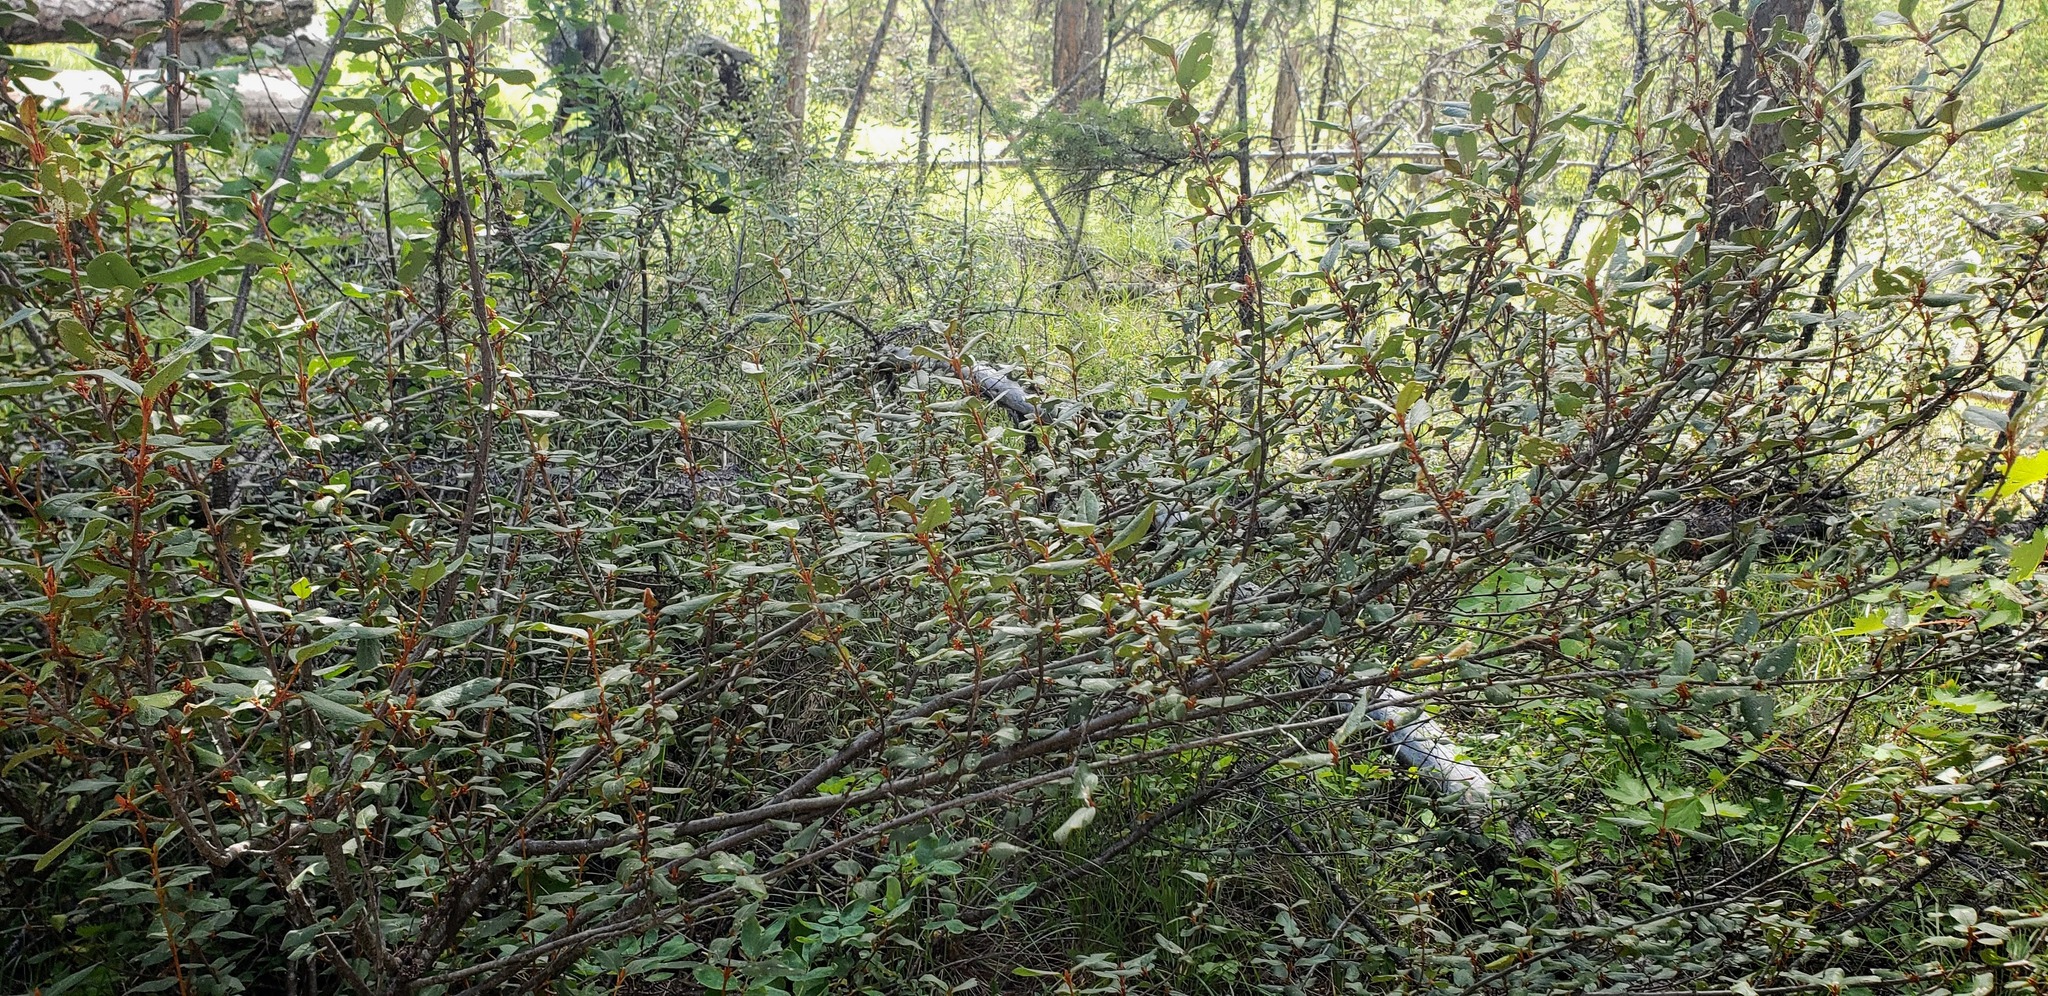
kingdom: Plantae
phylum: Tracheophyta
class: Magnoliopsida
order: Rosales
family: Elaeagnaceae
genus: Shepherdia
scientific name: Shepherdia canadensis
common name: Soapberry
